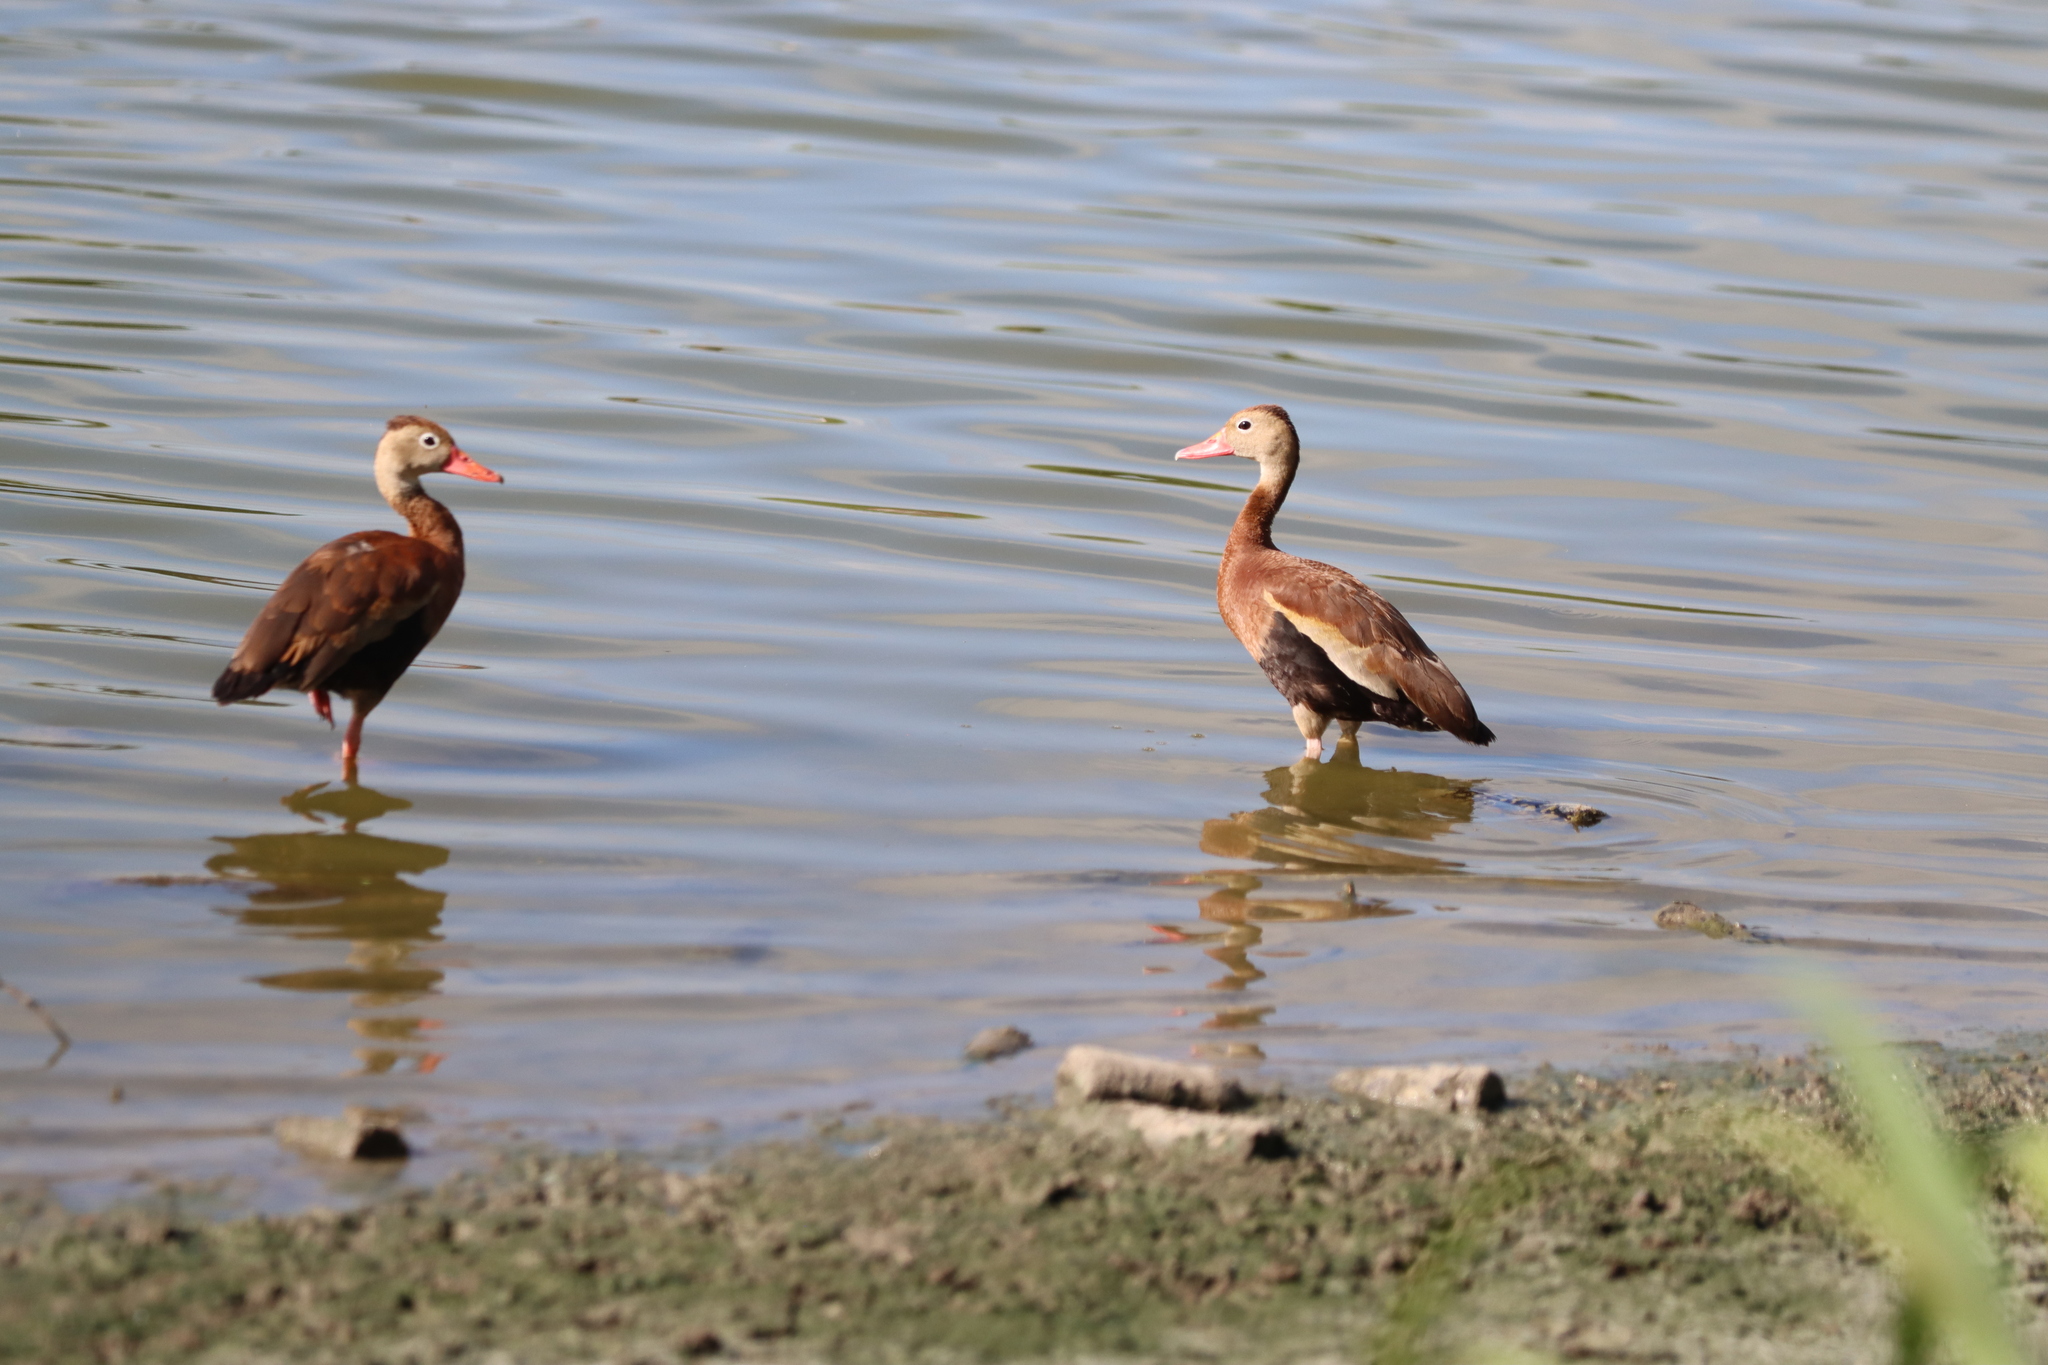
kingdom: Animalia
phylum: Chordata
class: Aves
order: Anseriformes
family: Anatidae
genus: Dendrocygna
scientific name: Dendrocygna autumnalis
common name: Black-bellied whistling duck
